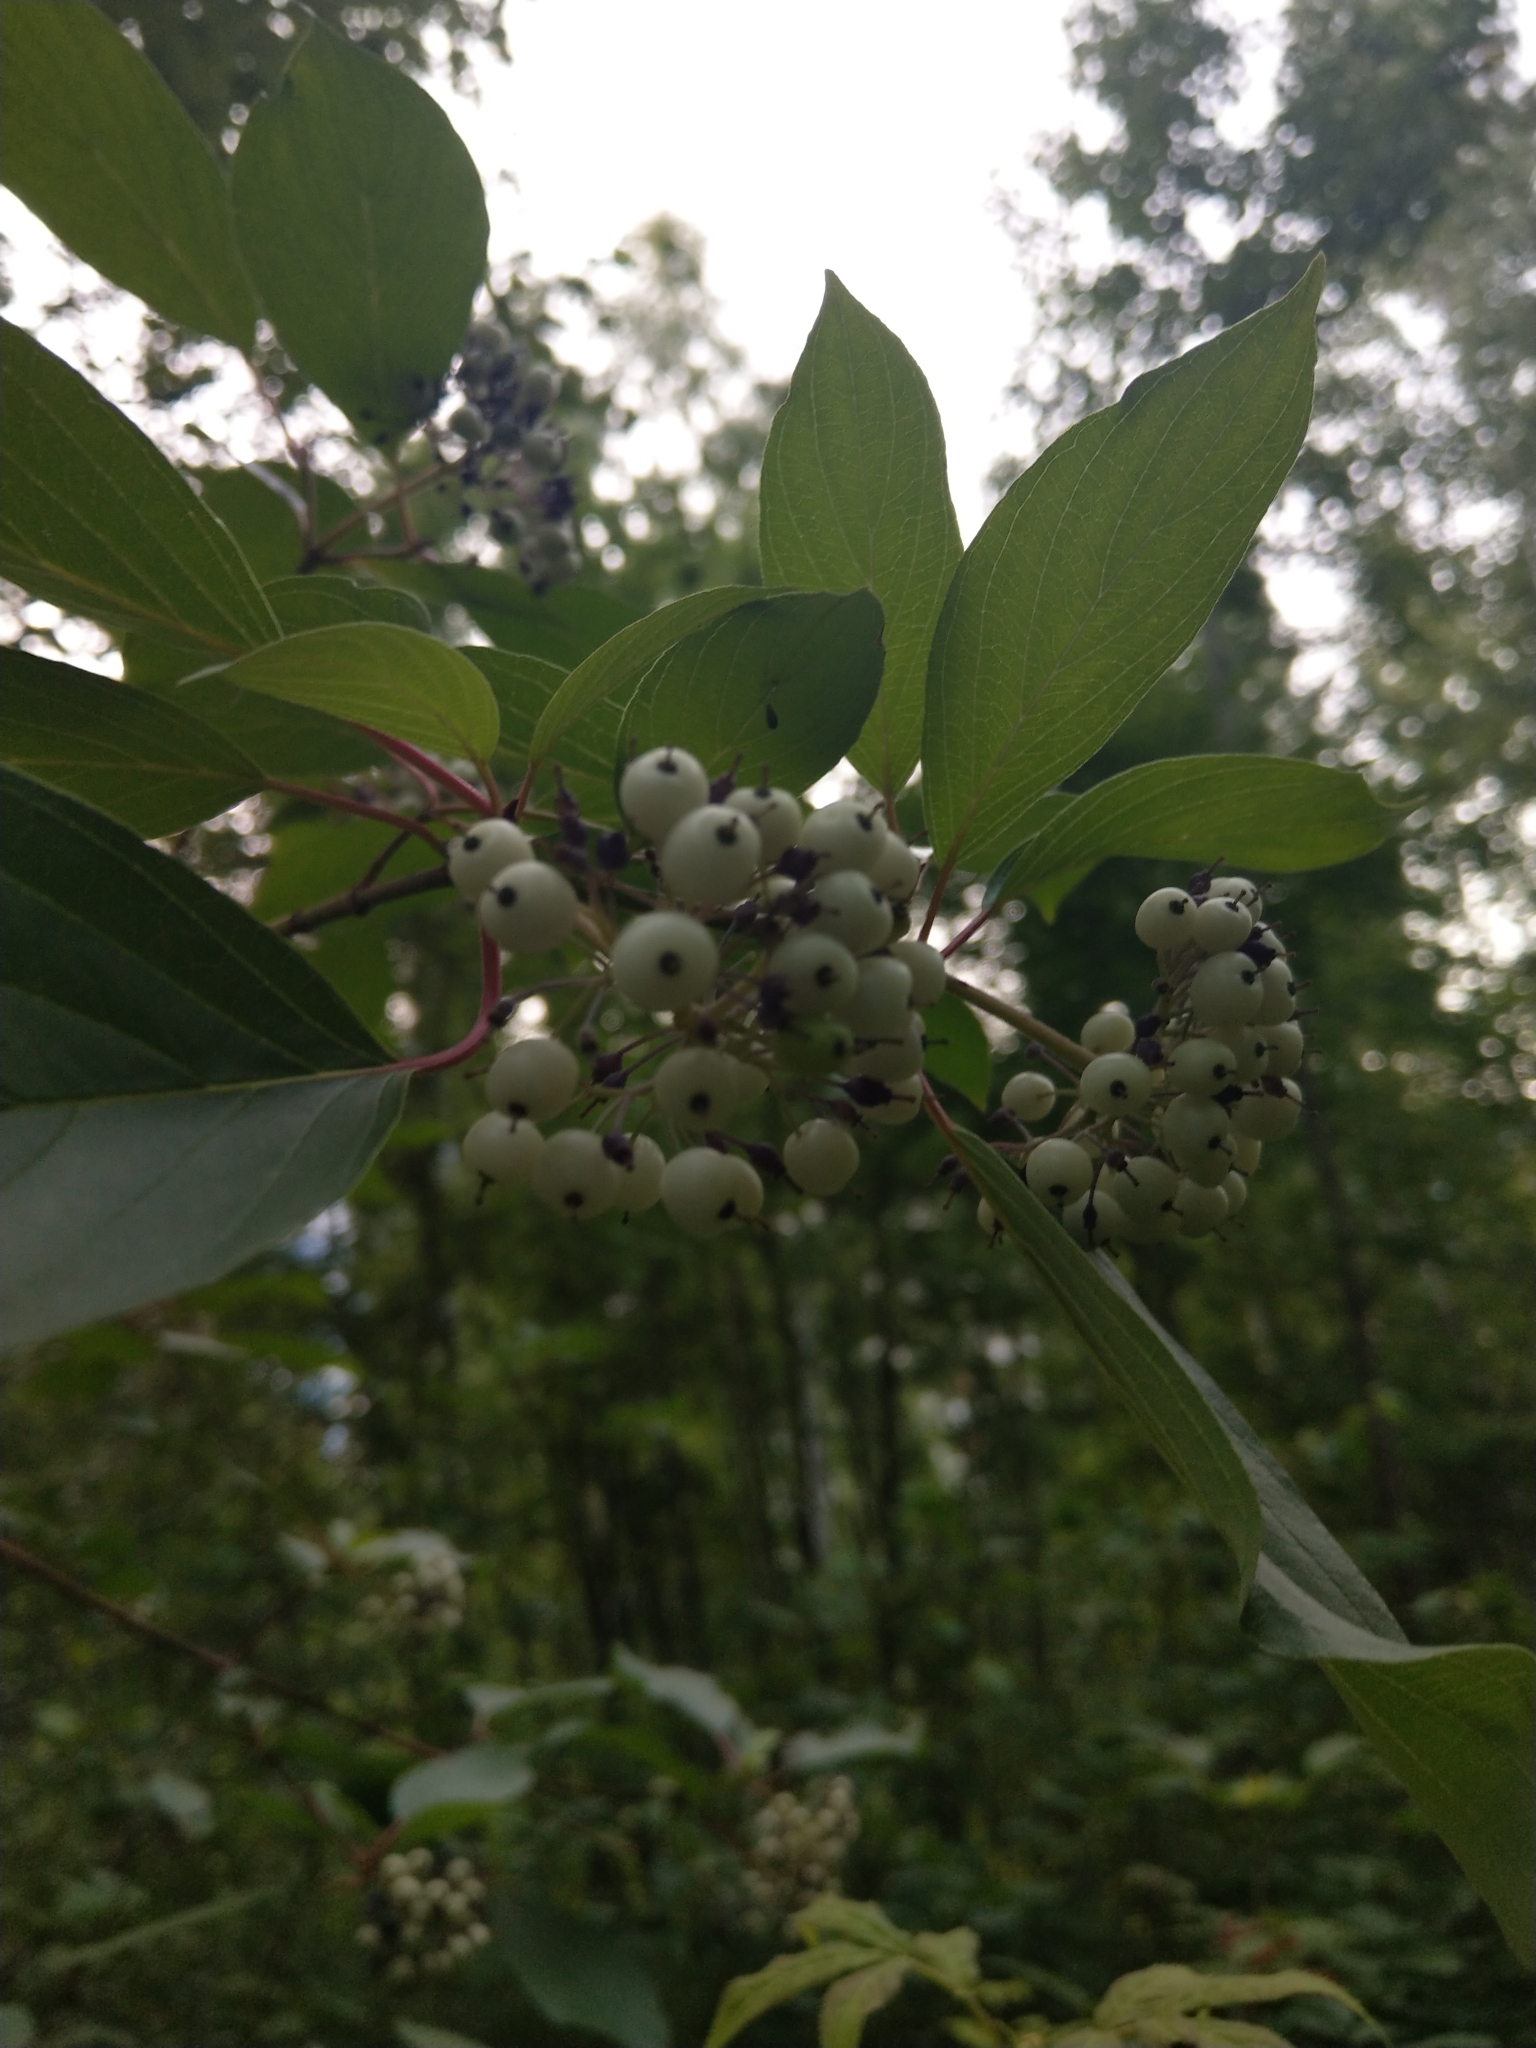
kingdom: Plantae
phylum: Tracheophyta
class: Magnoliopsida
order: Cornales
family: Cornaceae
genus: Cornus
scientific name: Cornus alba
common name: White dogwood
